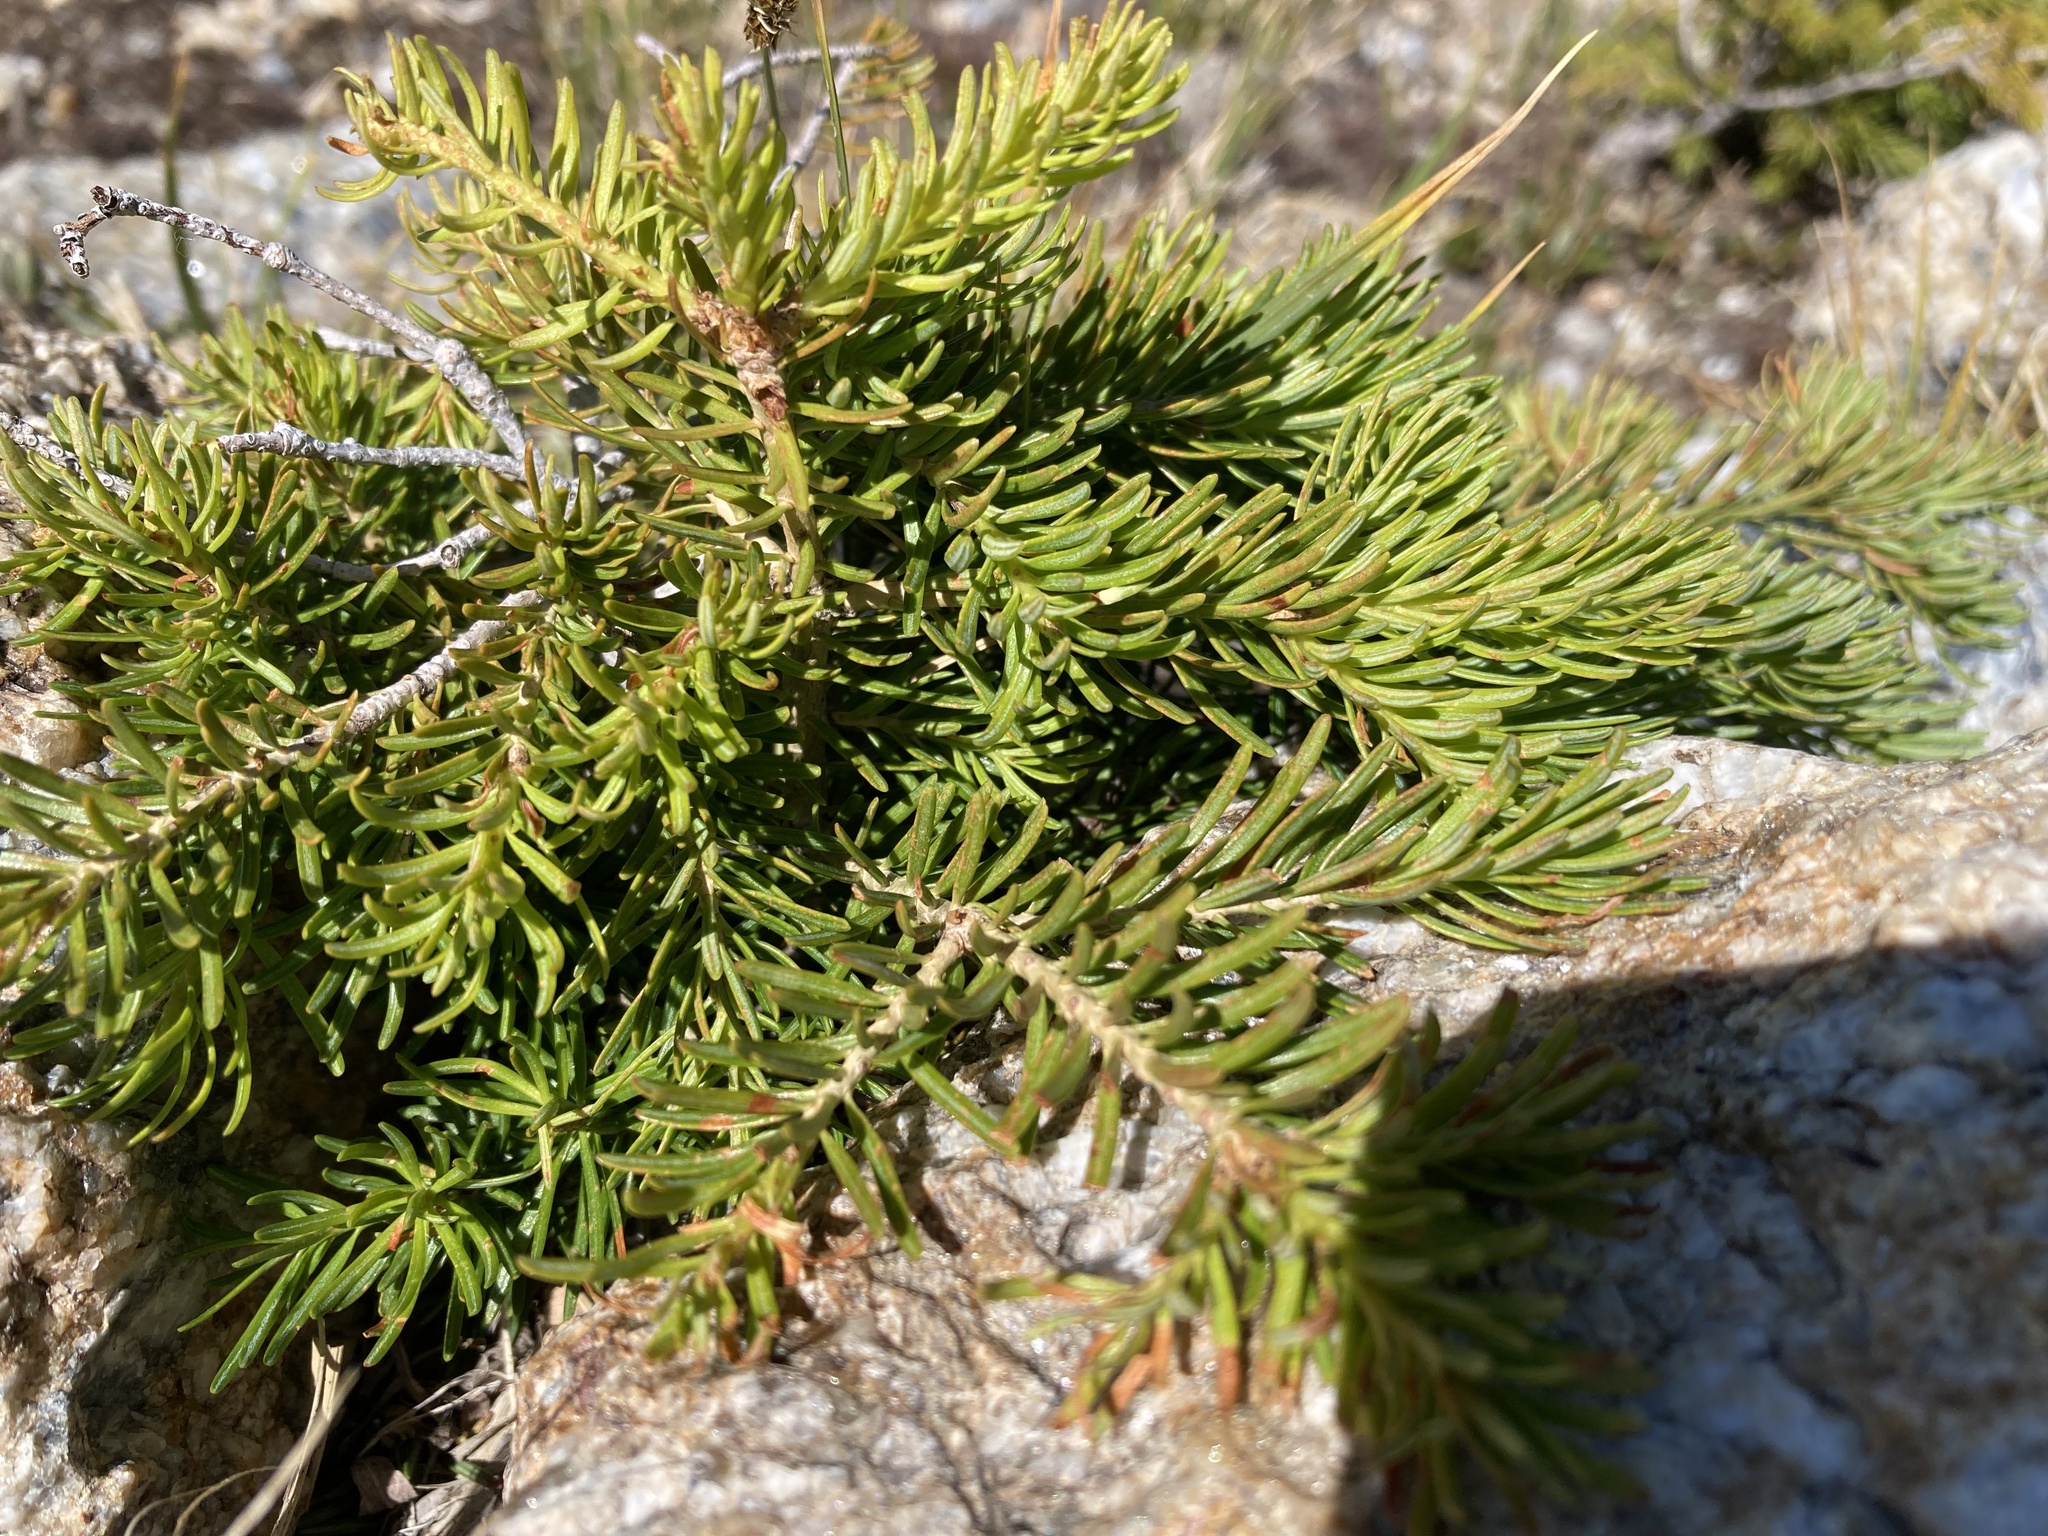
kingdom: Plantae
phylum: Tracheophyta
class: Pinopsida
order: Pinales
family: Pinaceae
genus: Abies
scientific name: Abies lasiocarpa
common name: Subalpine fir
